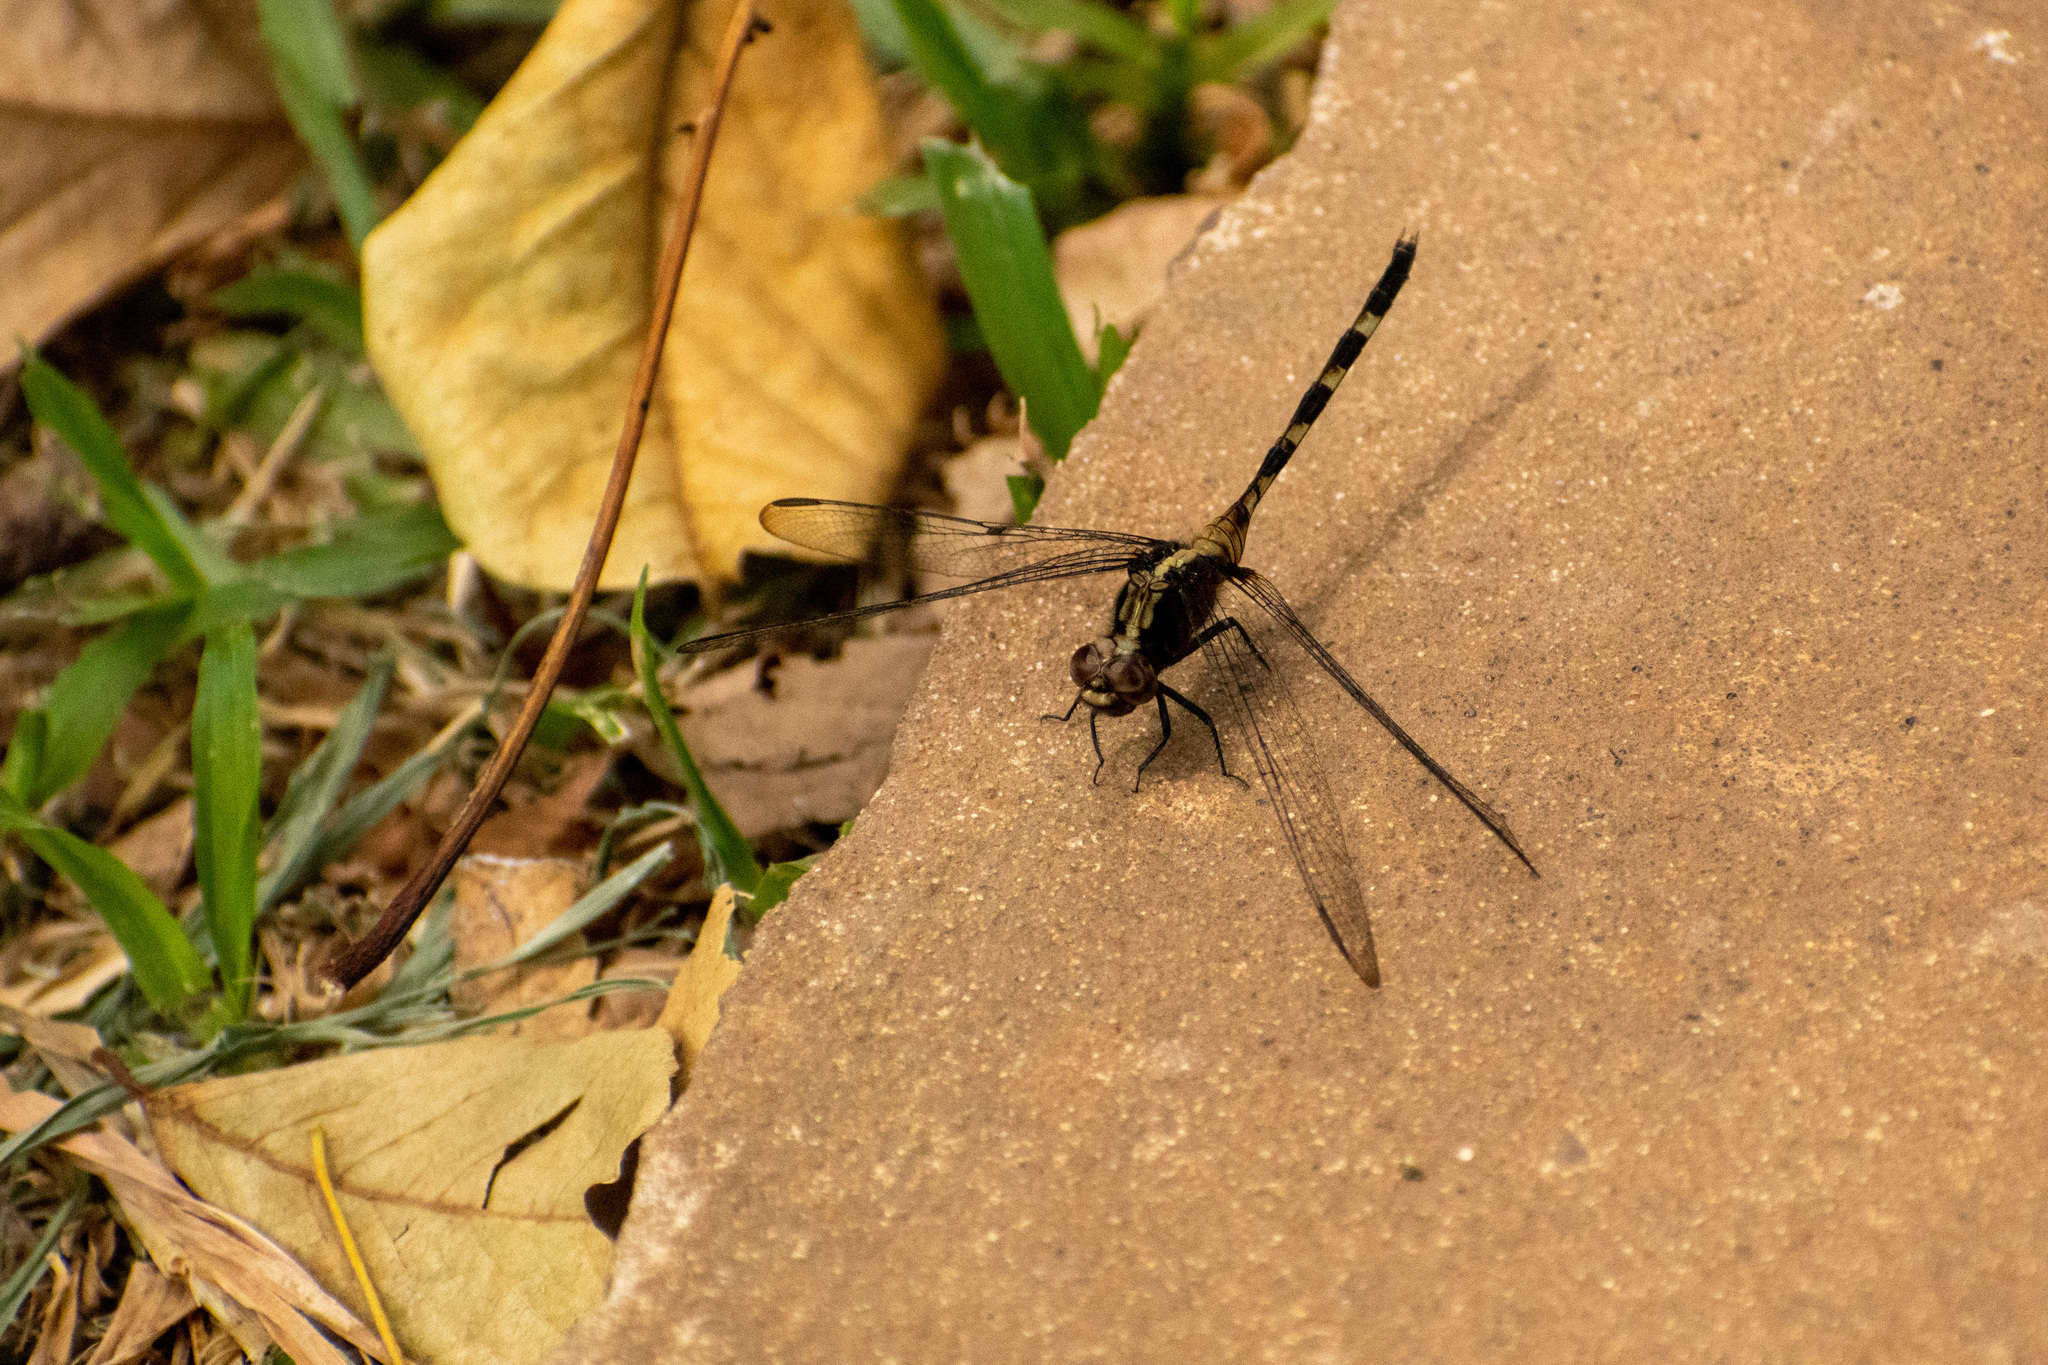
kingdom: Animalia
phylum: Arthropoda
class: Insecta
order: Odonata
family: Libellulidae
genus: Erythemis
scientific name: Erythemis plebeja
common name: Pin-tailed pondhawk
